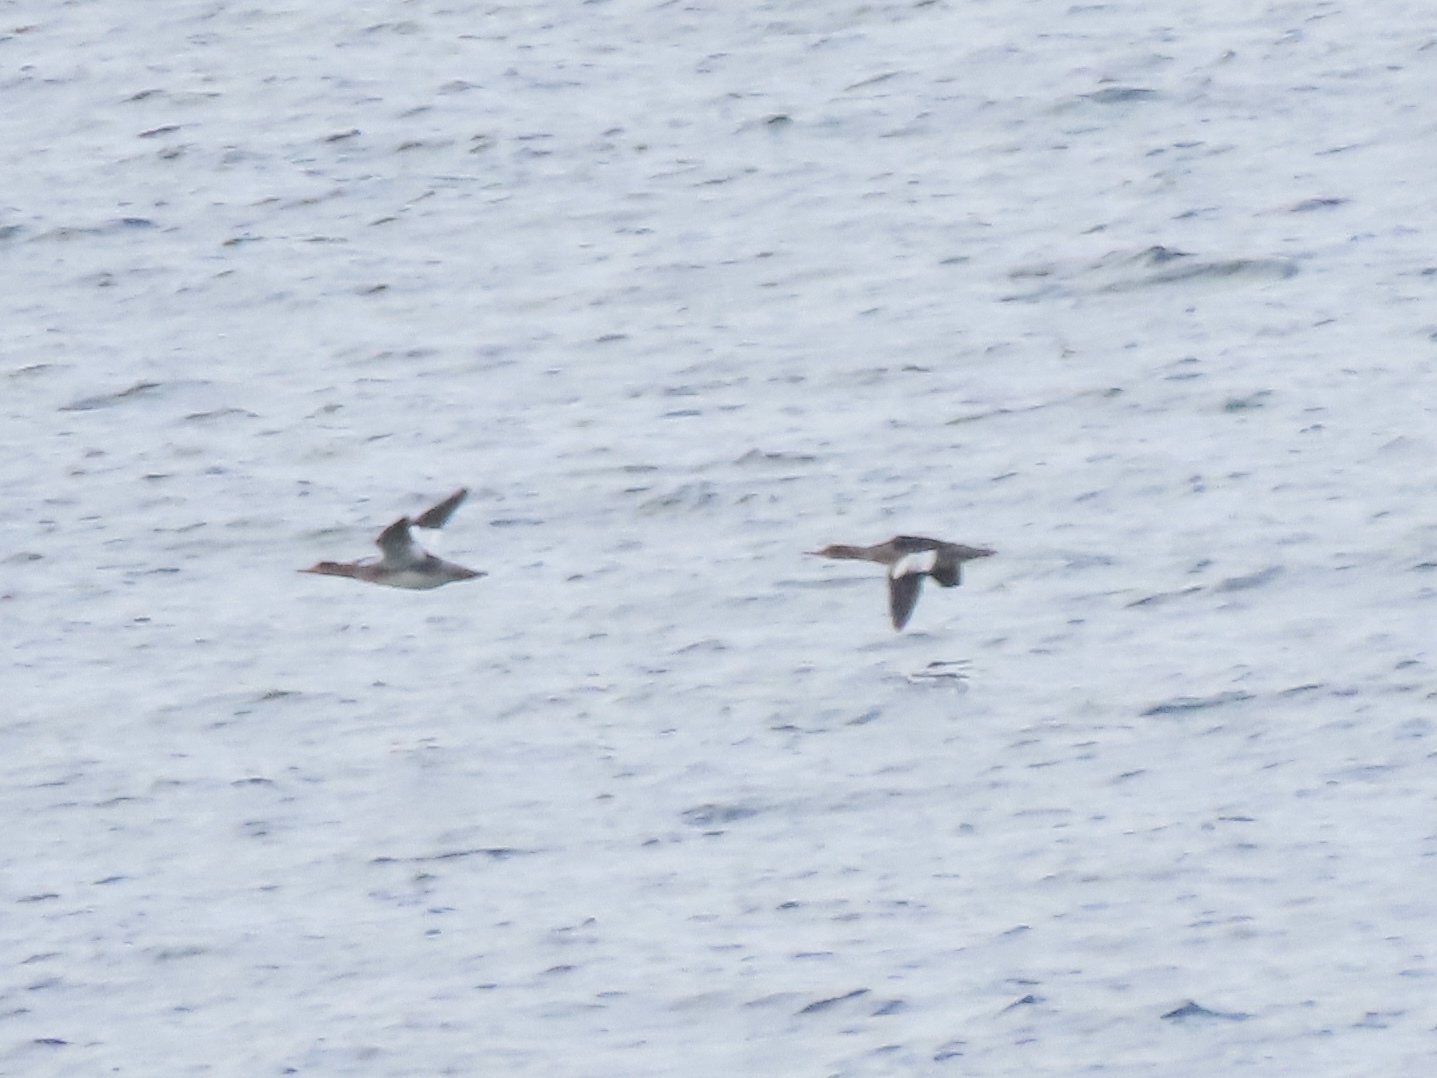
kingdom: Animalia
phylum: Chordata
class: Aves
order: Anseriformes
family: Anatidae
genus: Mergus
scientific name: Mergus serrator
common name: Red-breasted merganser
